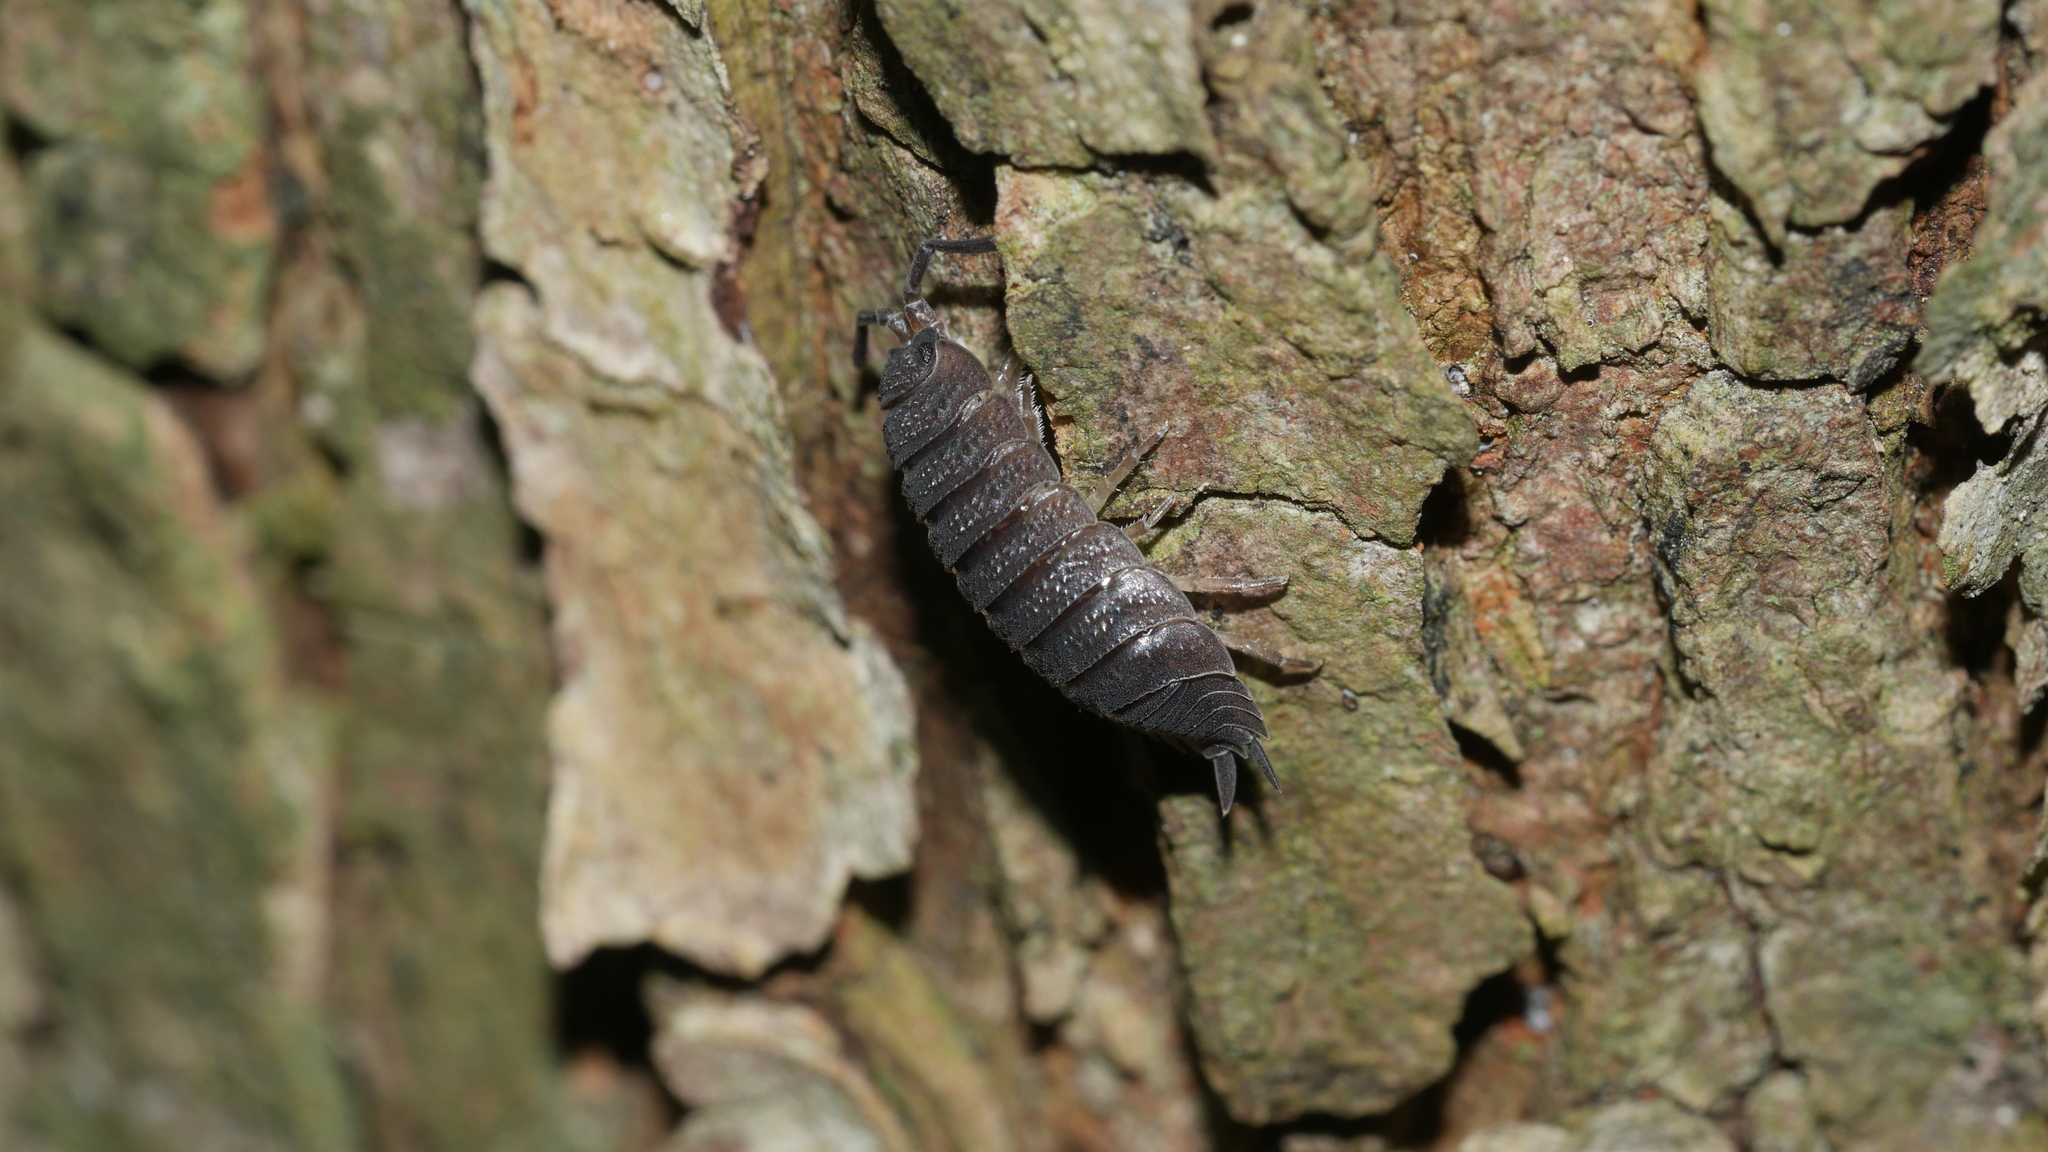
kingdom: Animalia
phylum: Arthropoda
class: Malacostraca
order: Isopoda
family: Porcellionidae
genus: Porcellio
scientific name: Porcellio scaber
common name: Common rough woodlouse
